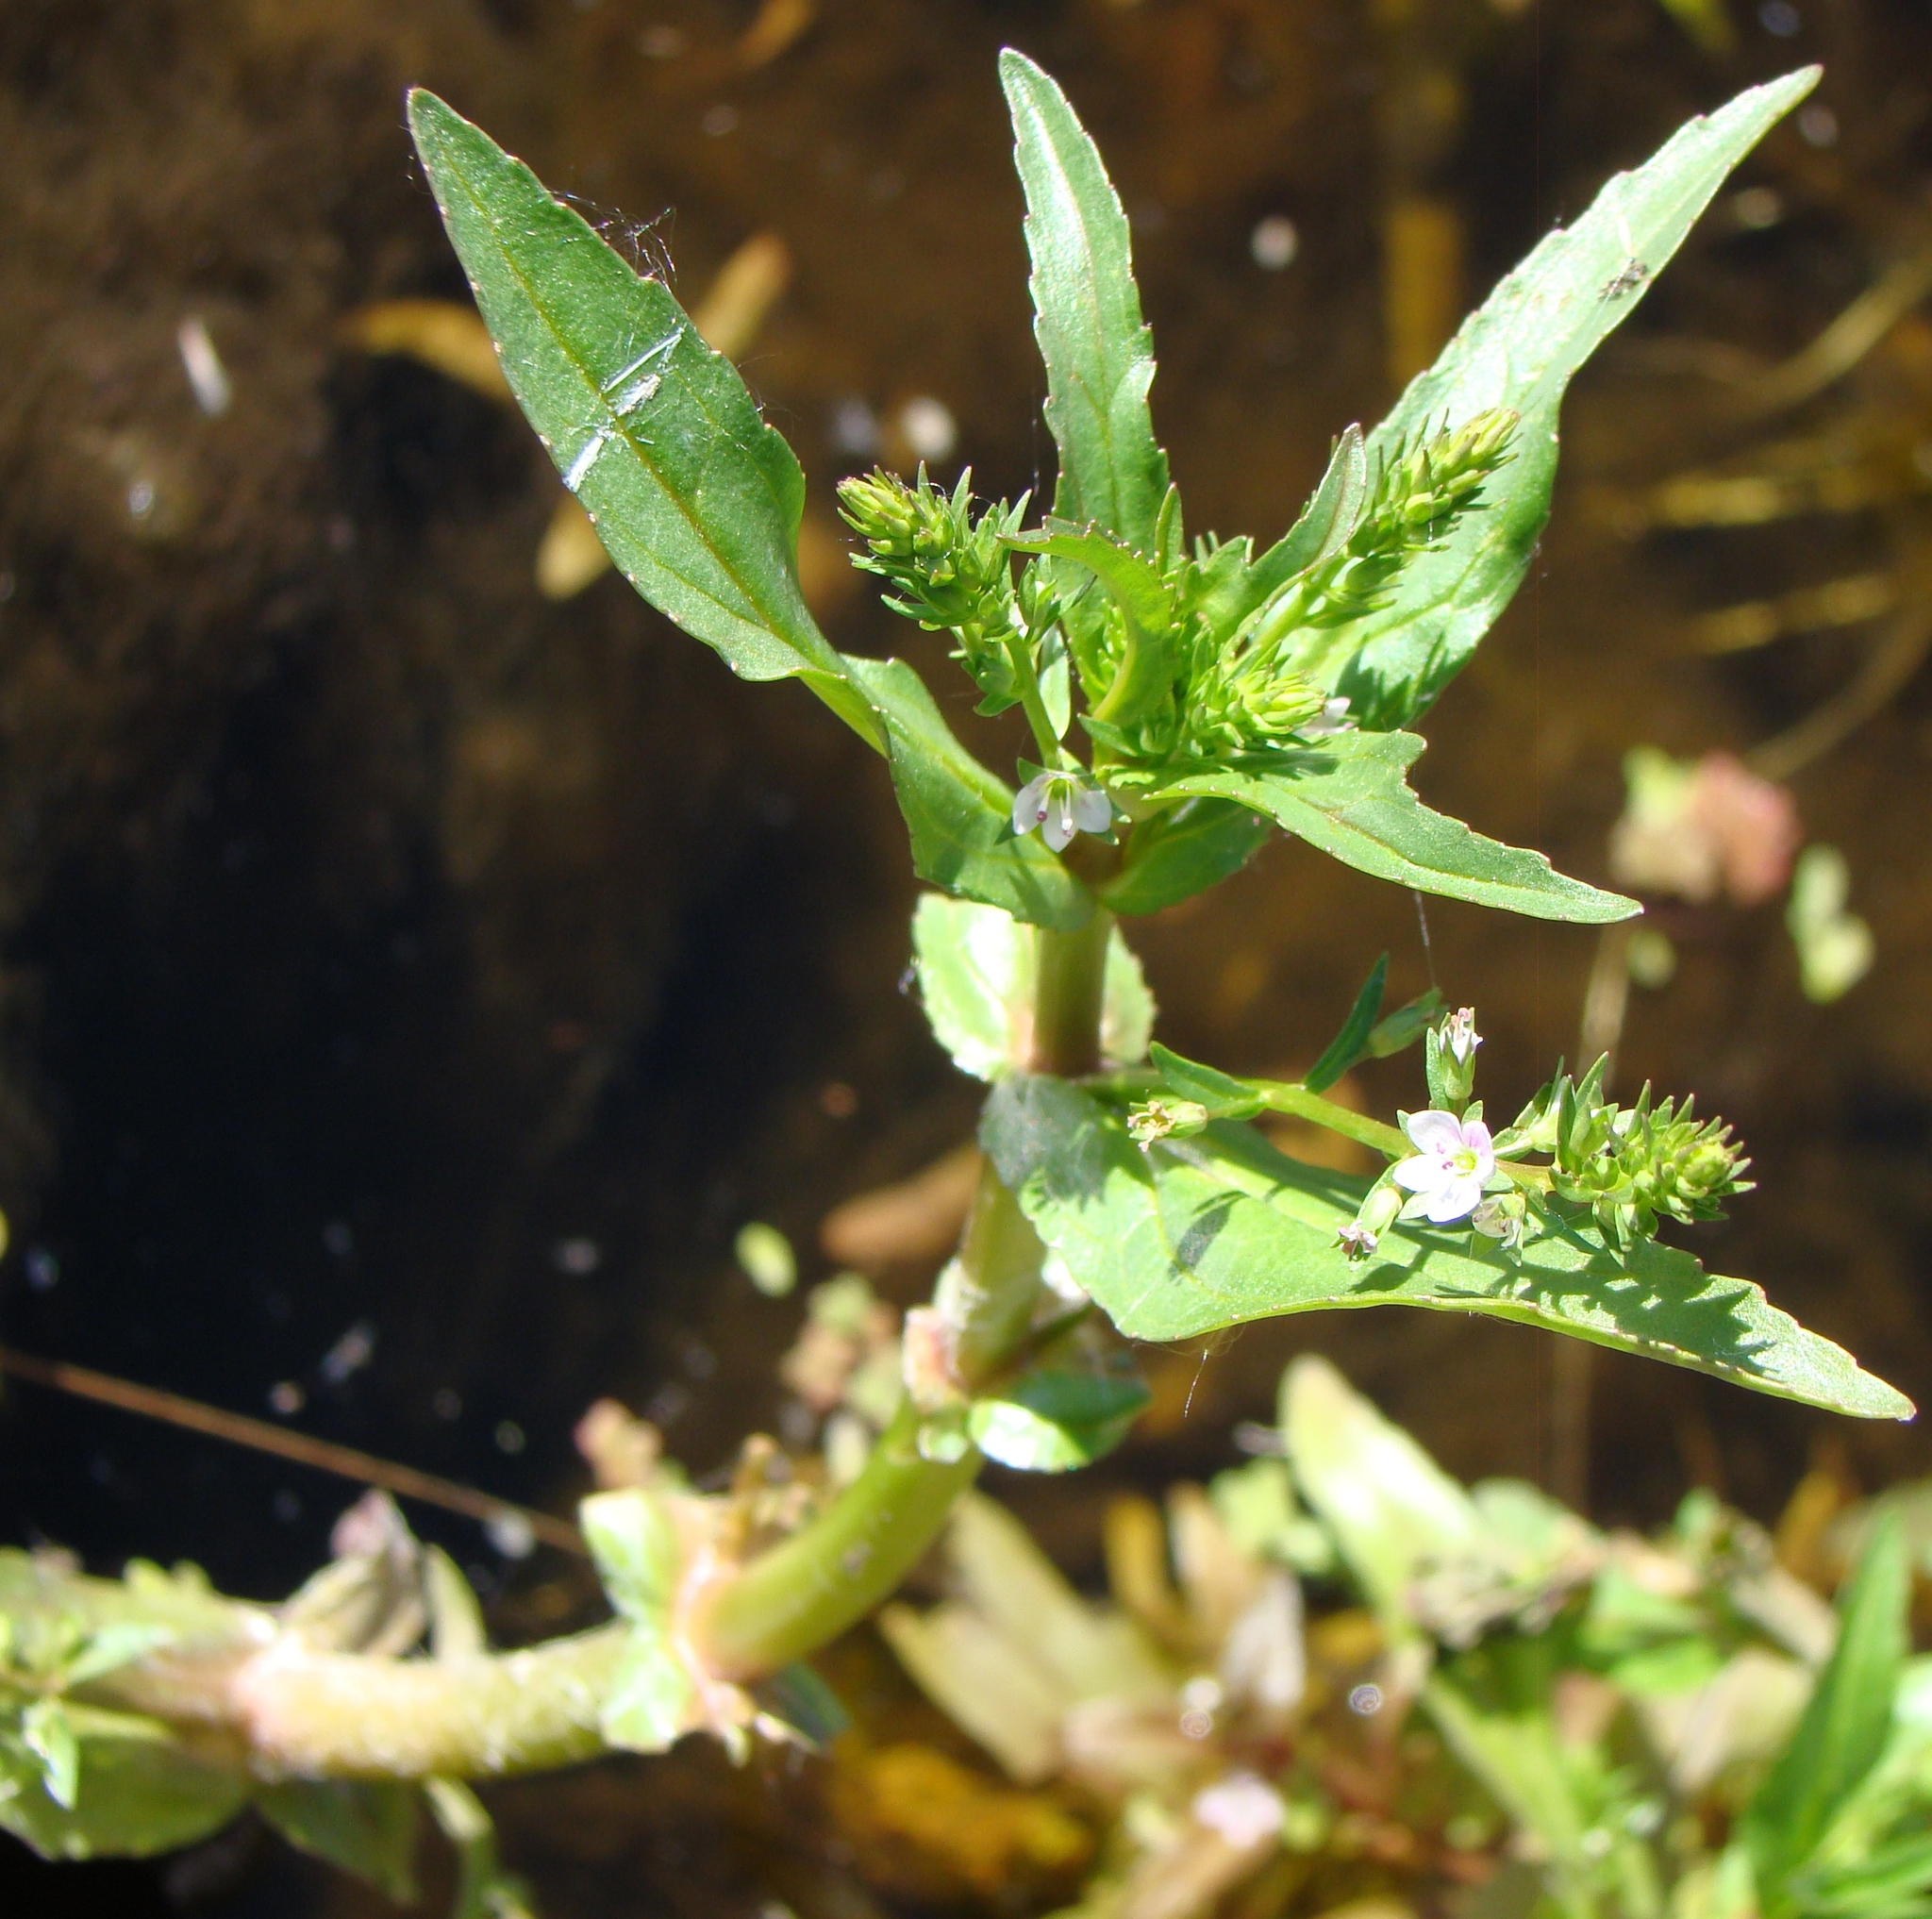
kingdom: Plantae
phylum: Tracheophyta
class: Magnoliopsida
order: Lamiales
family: Plantaginaceae
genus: Veronica
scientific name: Veronica catenata
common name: Pink water-speedwell
